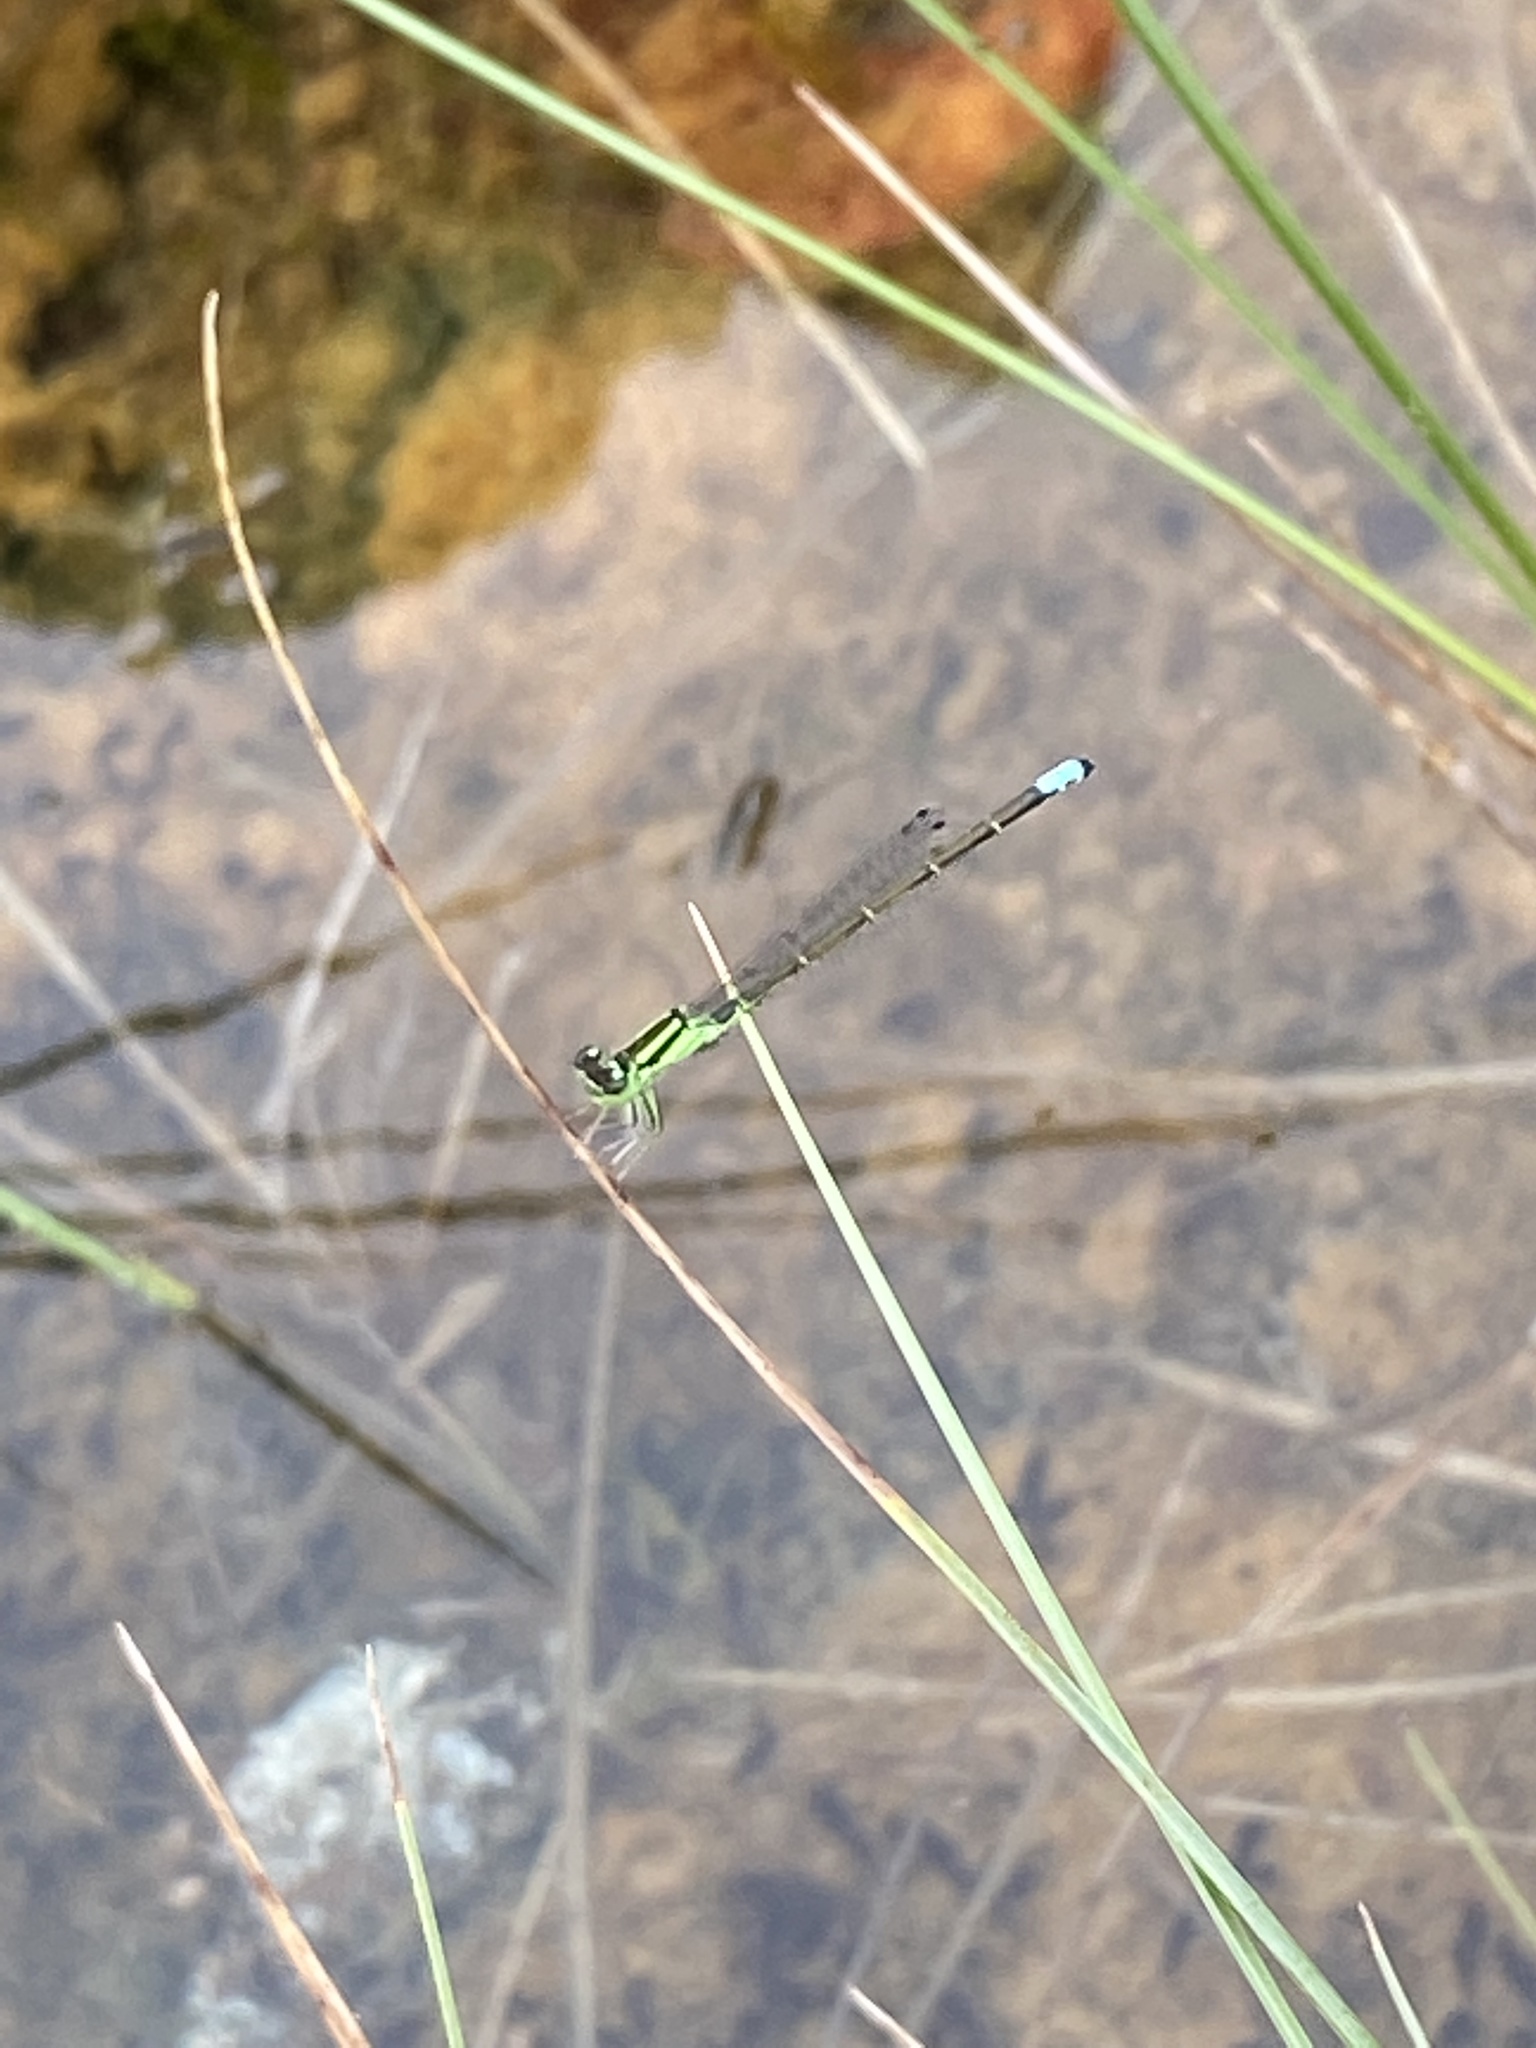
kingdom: Animalia
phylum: Arthropoda
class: Insecta
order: Odonata
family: Coenagrionidae
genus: Ischnura
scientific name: Ischnura verticalis
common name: Eastern forktail
